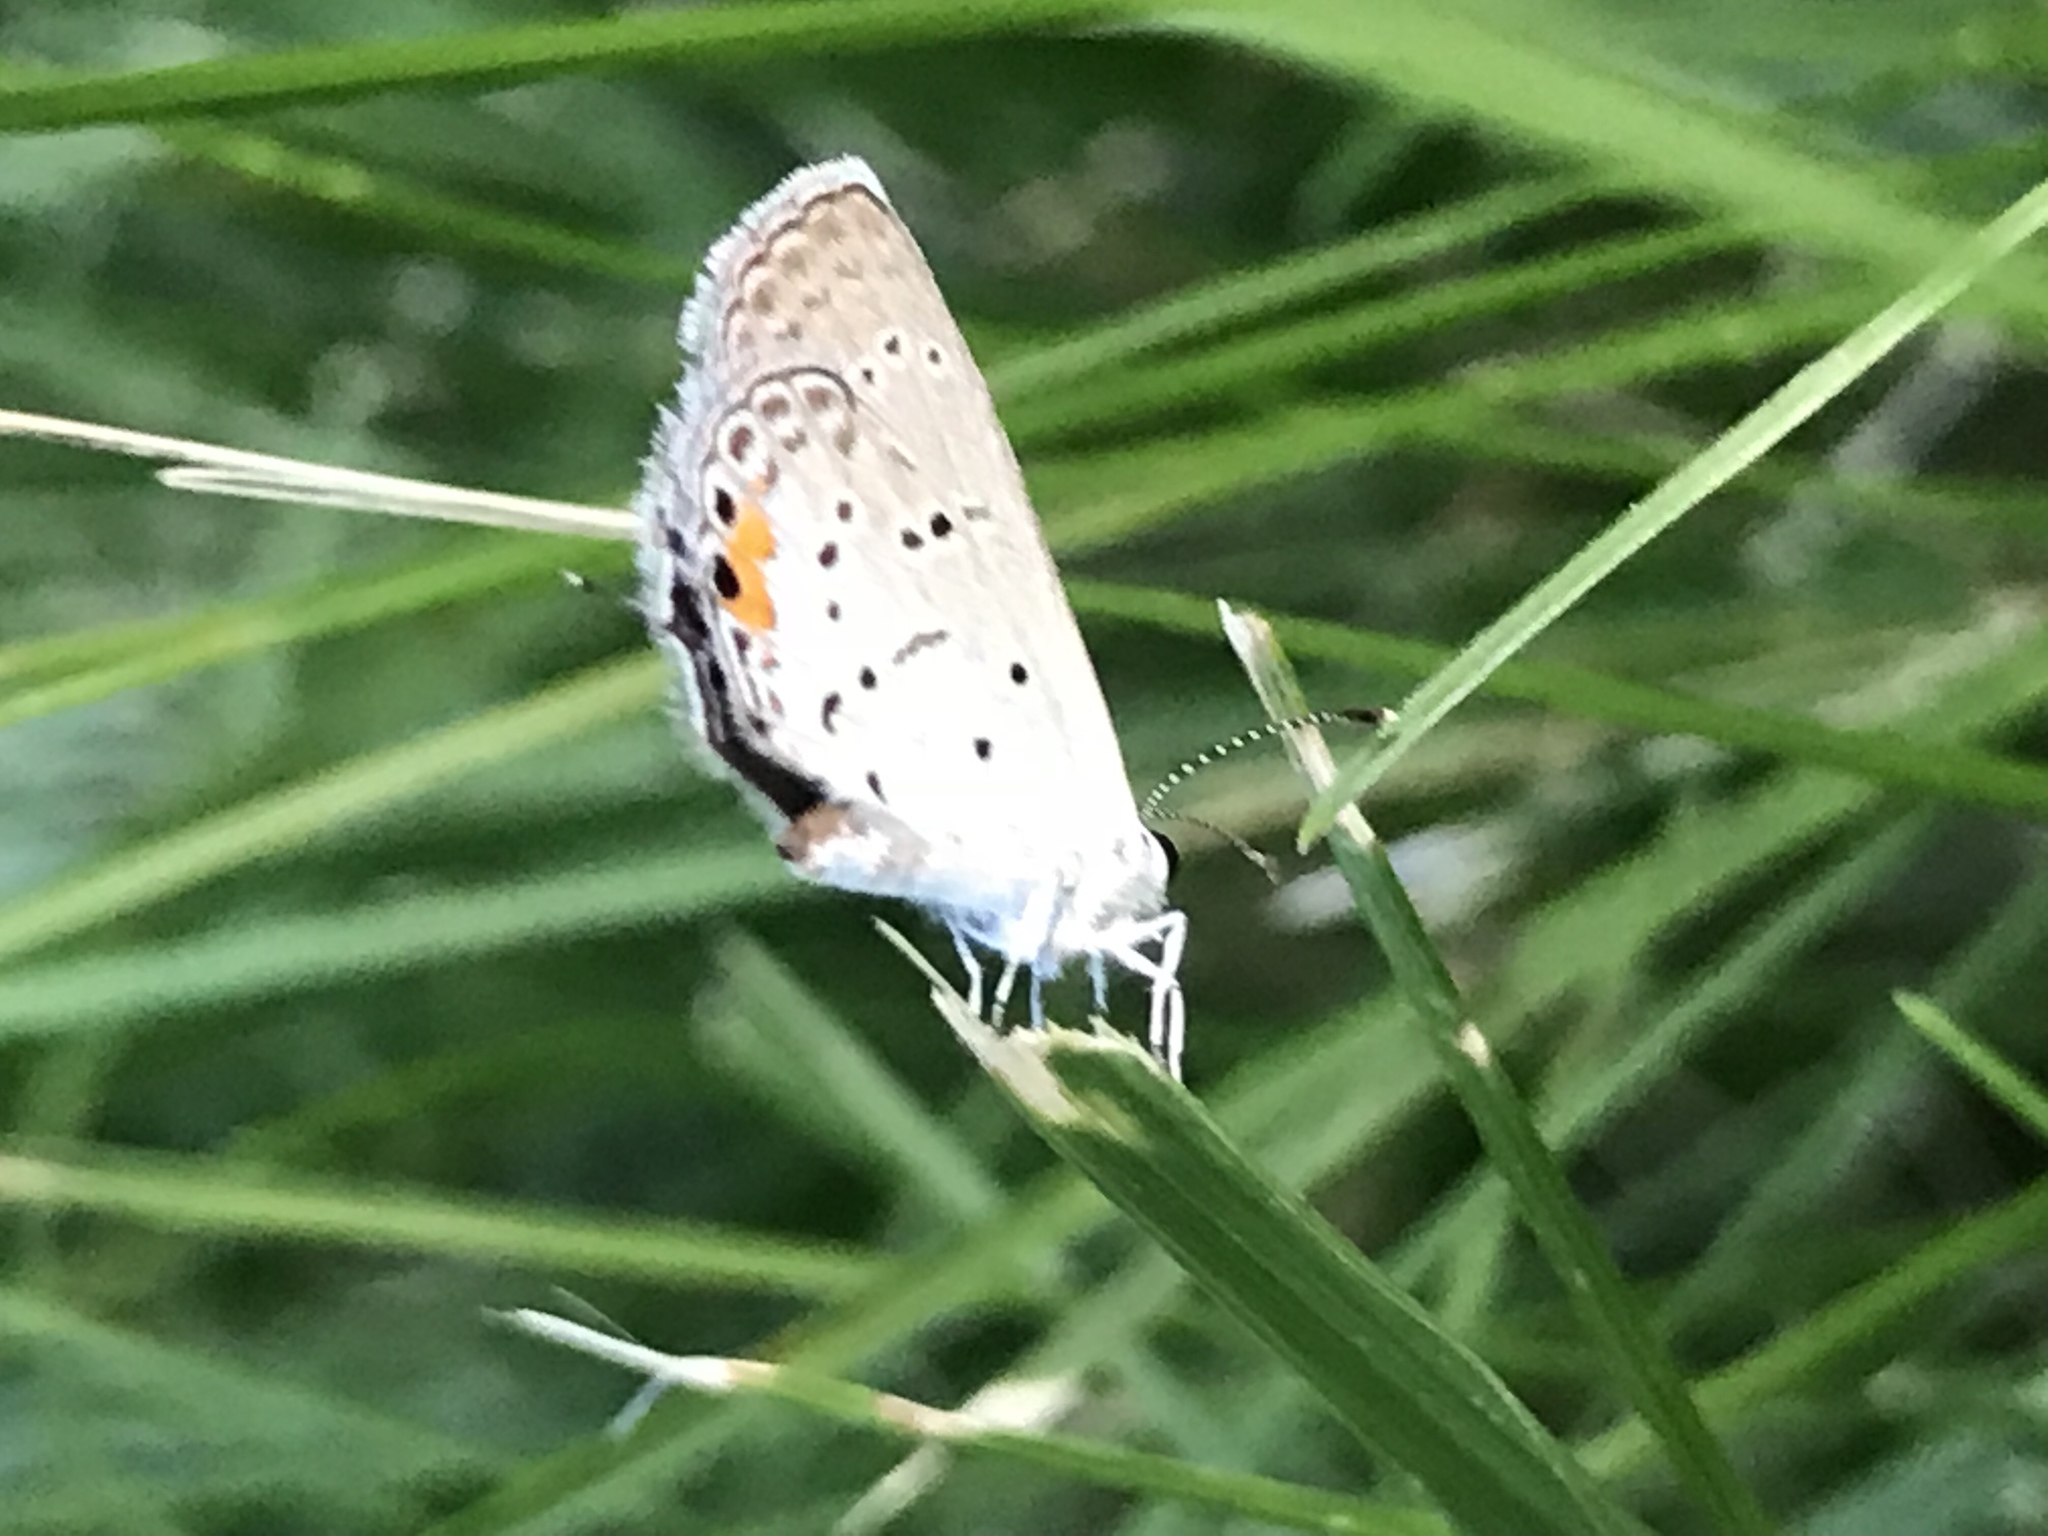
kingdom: Animalia
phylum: Arthropoda
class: Insecta
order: Lepidoptera
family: Lycaenidae
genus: Elkalyce
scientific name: Elkalyce comyntas
